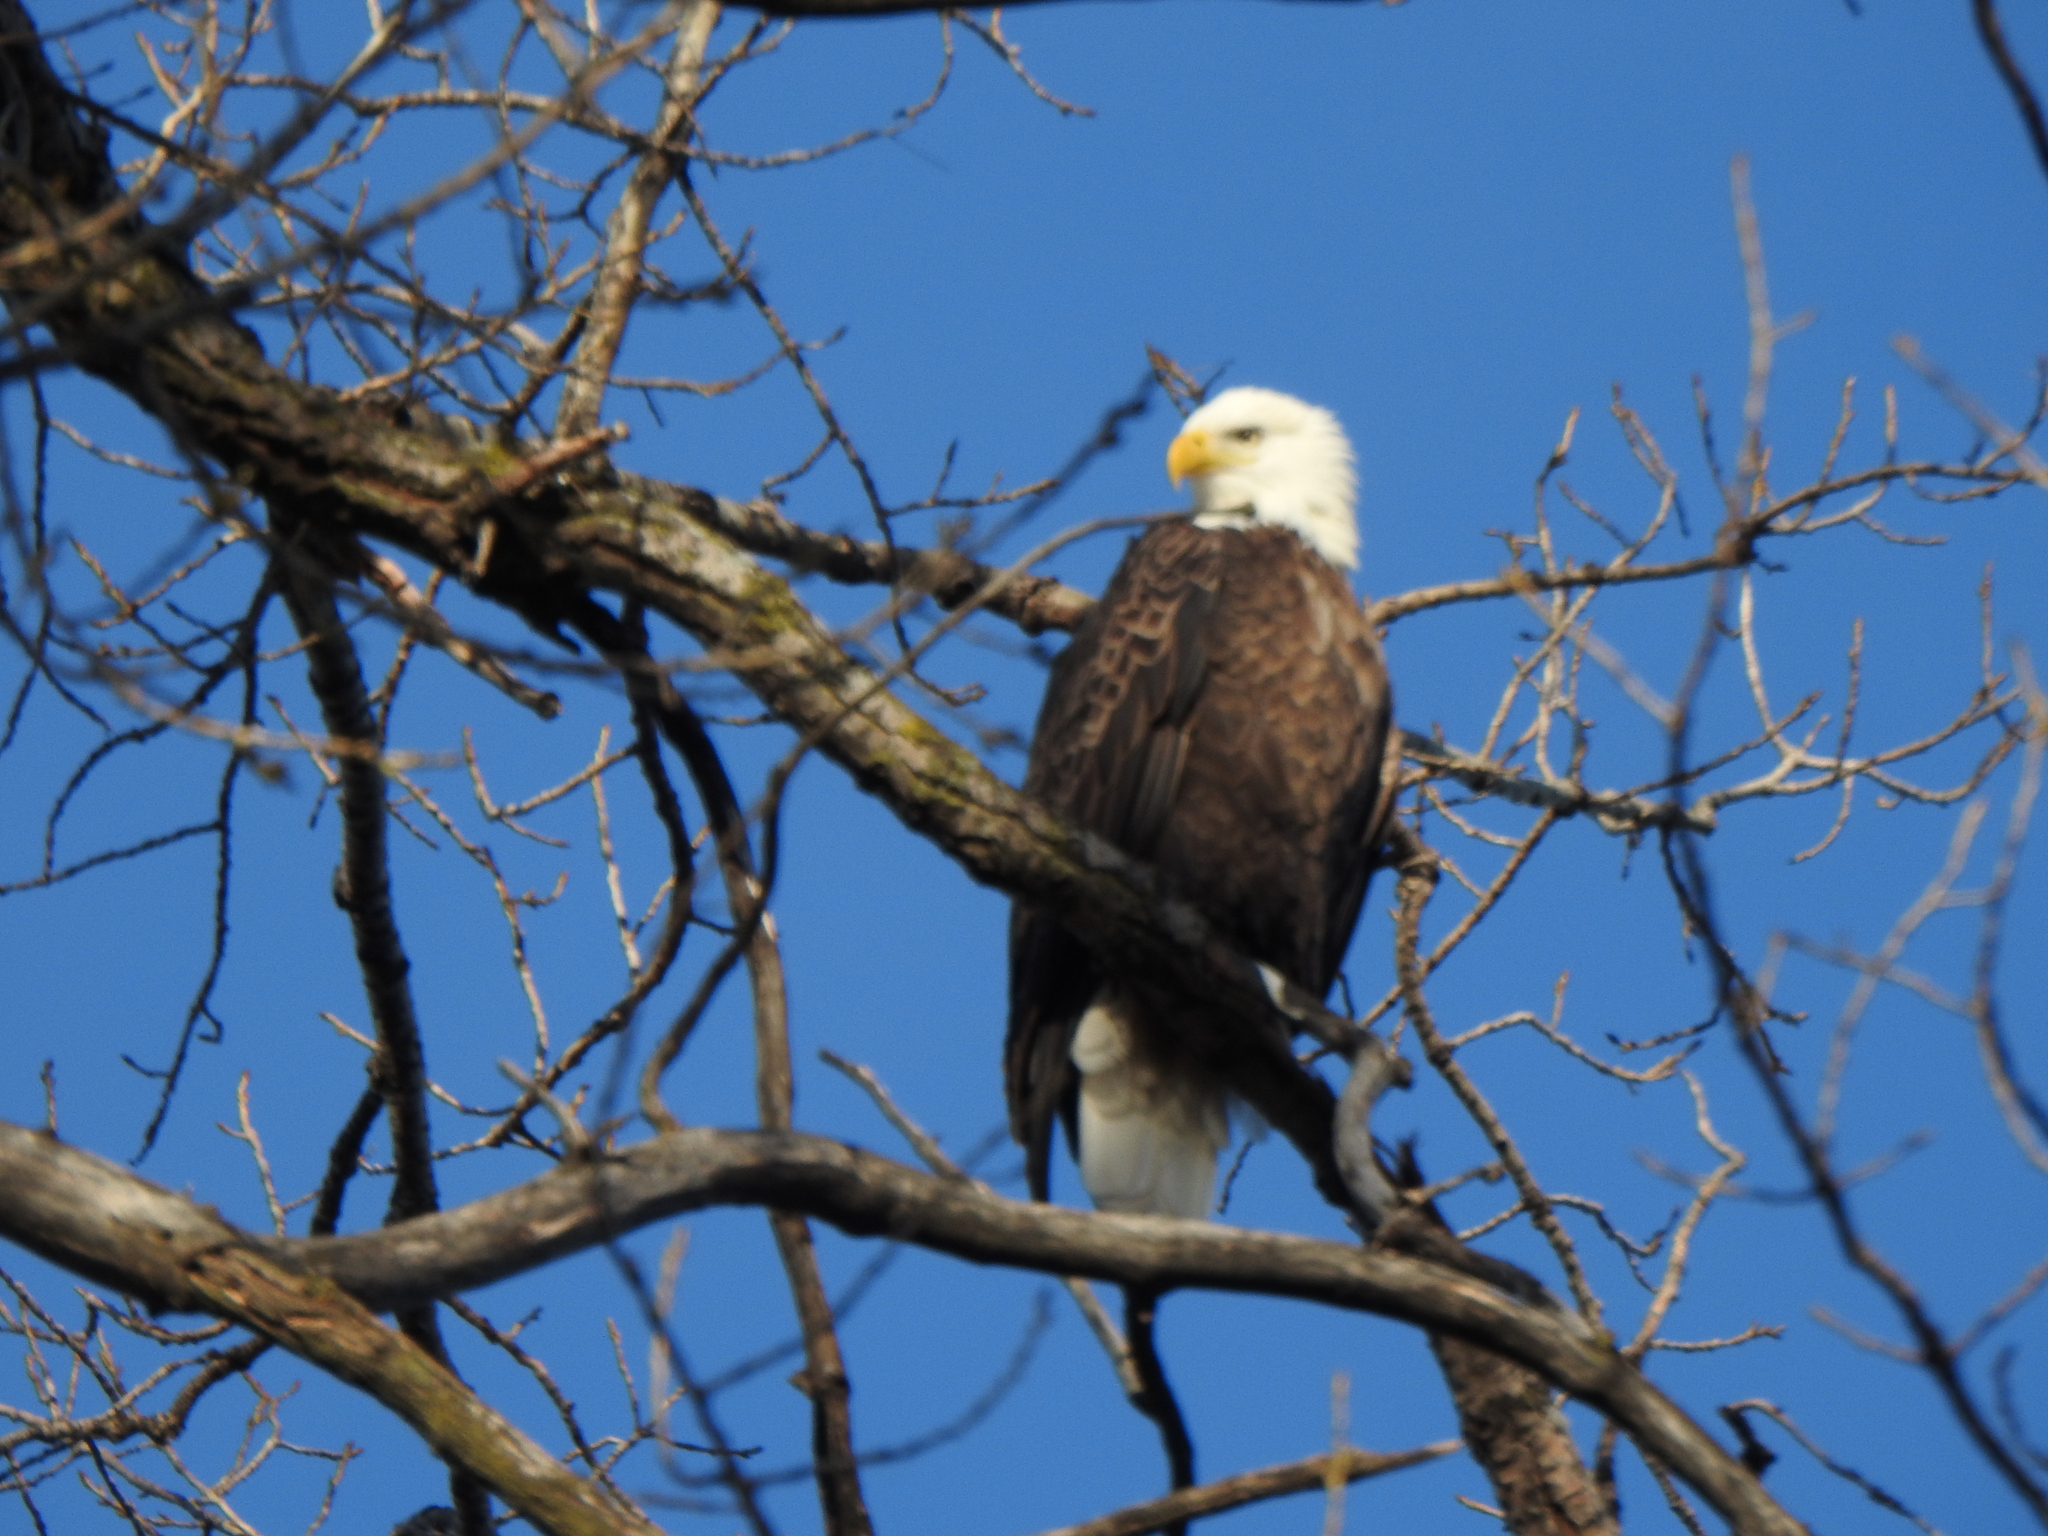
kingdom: Animalia
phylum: Chordata
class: Aves
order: Accipitriformes
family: Accipitridae
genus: Haliaeetus
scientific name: Haliaeetus leucocephalus
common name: Bald eagle
